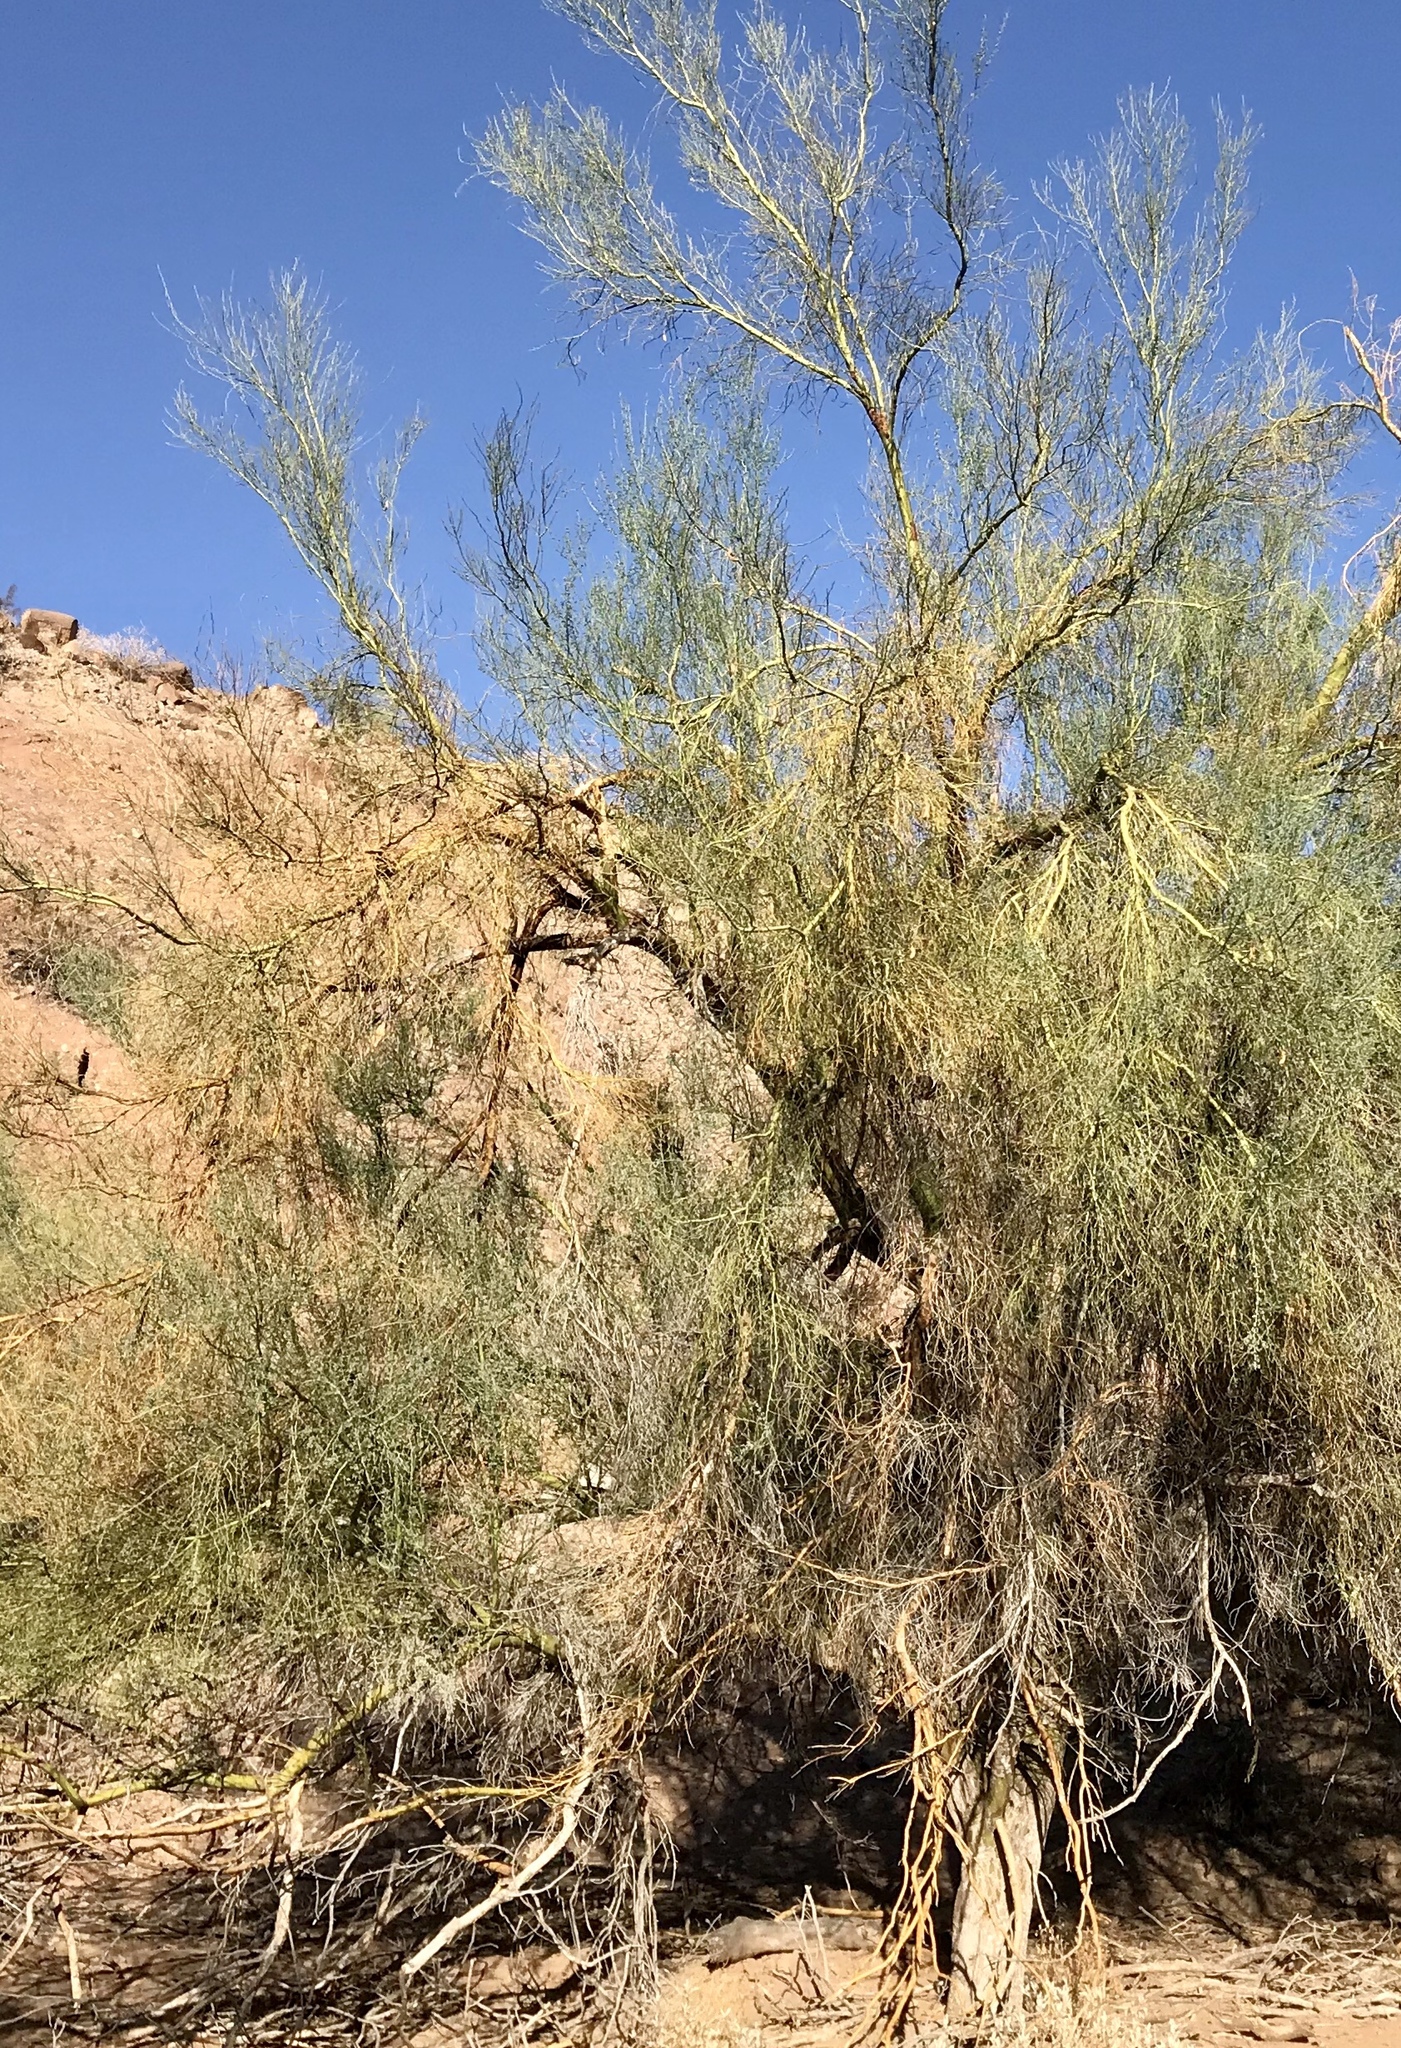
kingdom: Plantae
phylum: Tracheophyta
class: Magnoliopsida
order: Fabales
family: Fabaceae
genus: Parkinsonia
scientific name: Parkinsonia florida
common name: Blue paloverde
